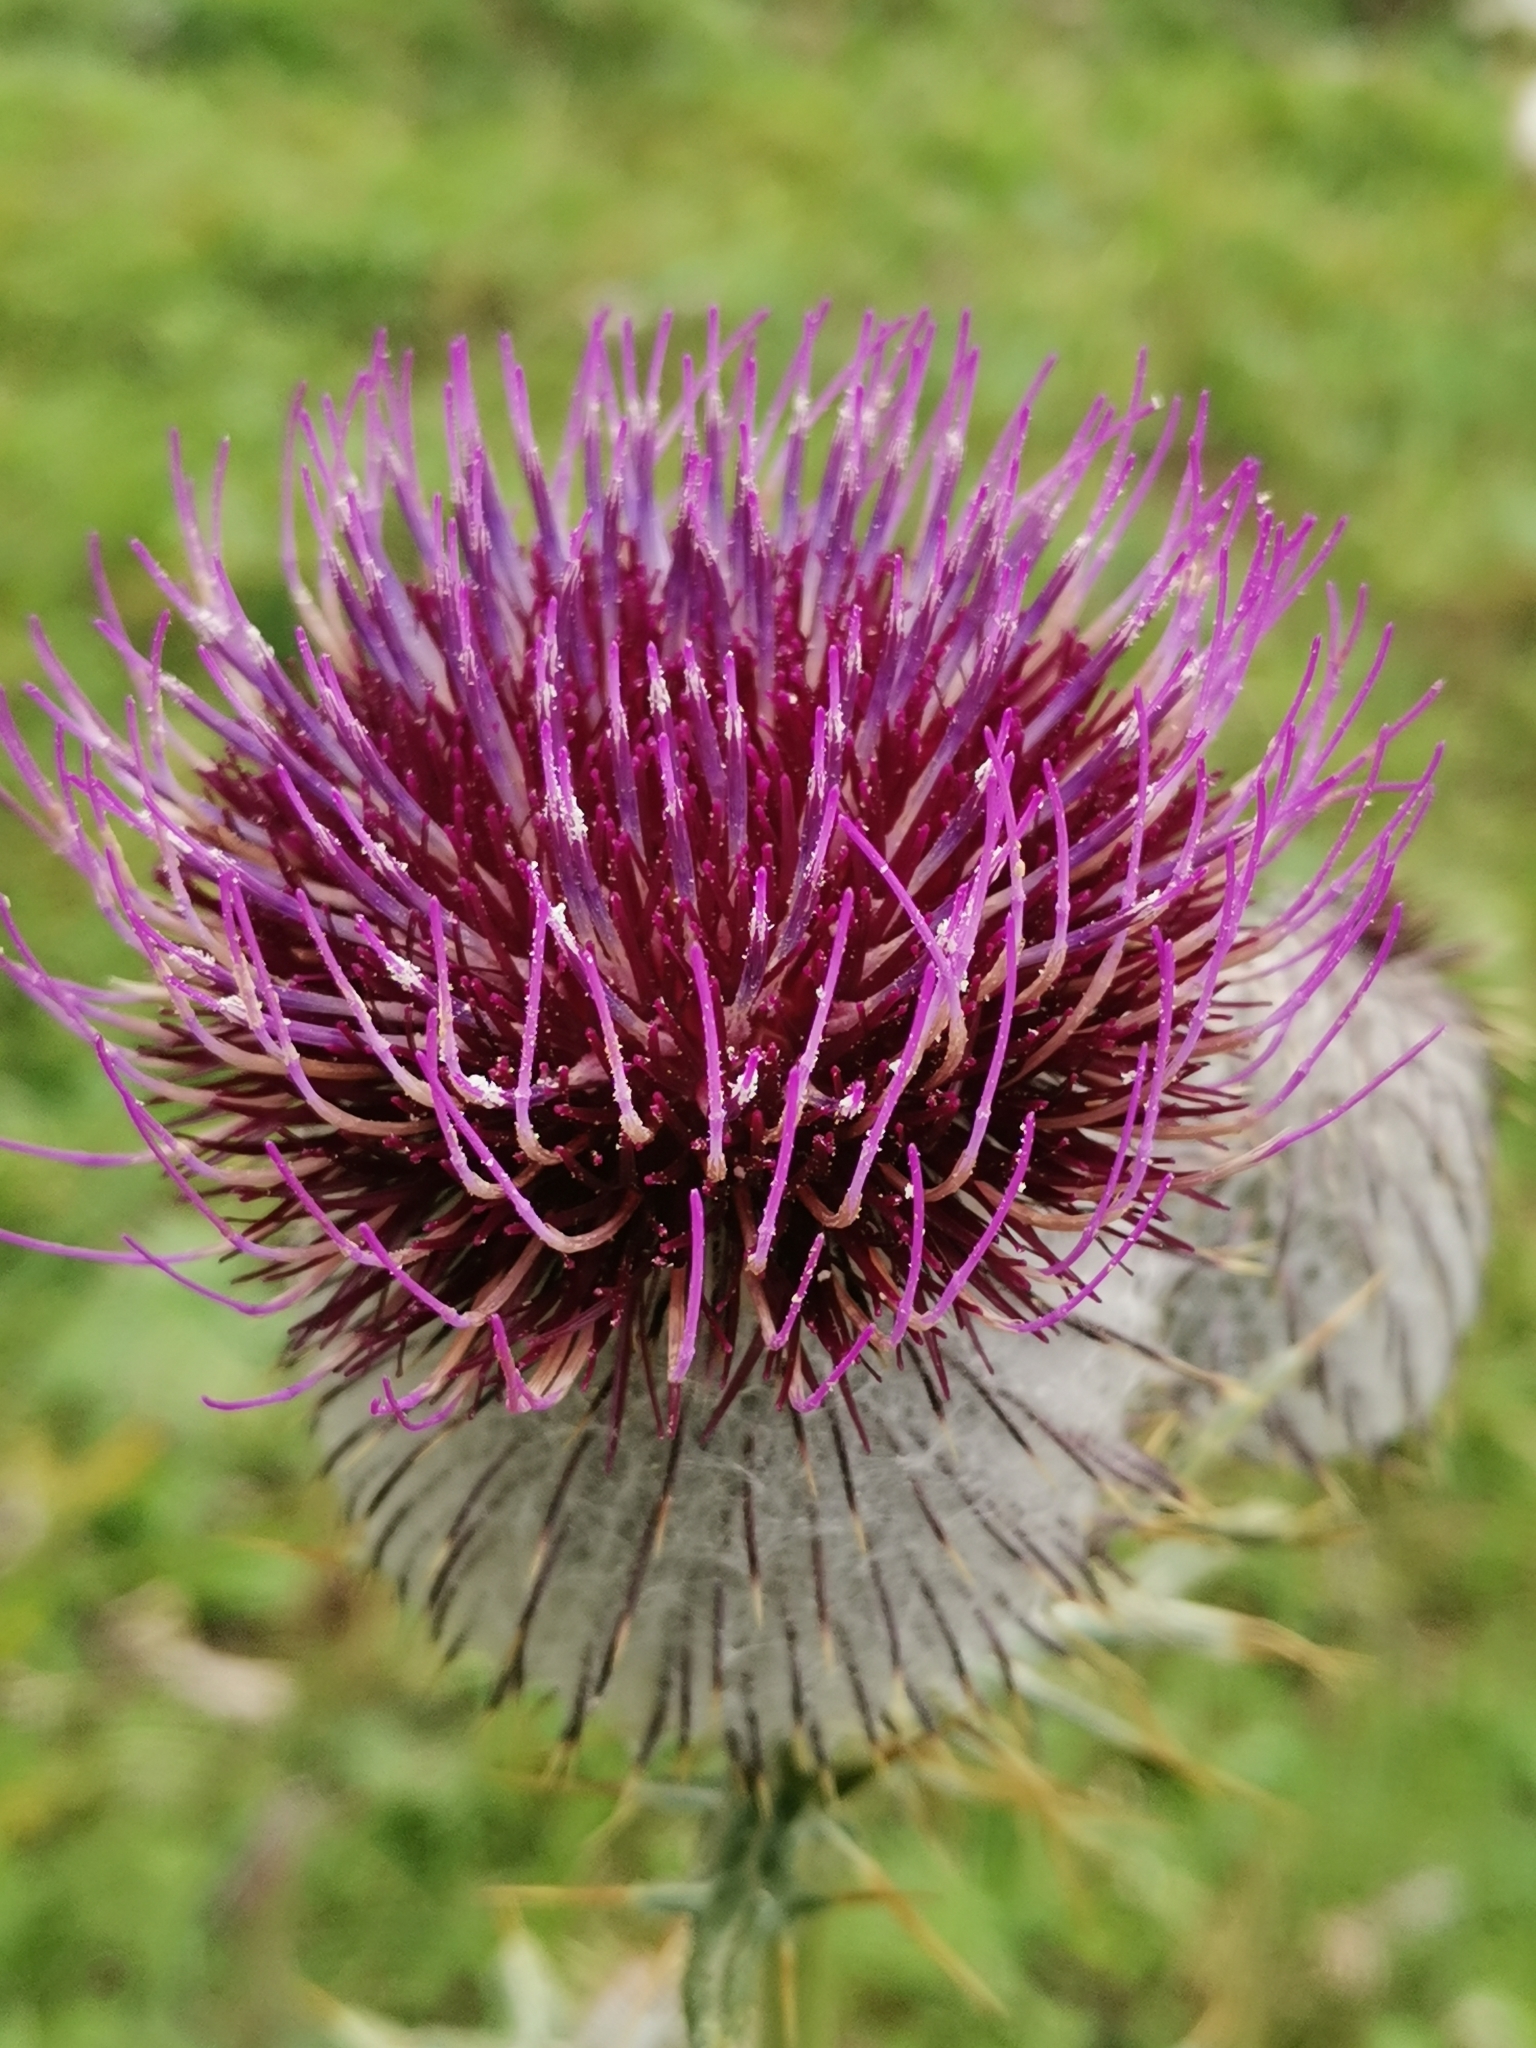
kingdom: Plantae
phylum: Tracheophyta
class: Magnoliopsida
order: Asterales
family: Asteraceae
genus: Lophiolepis
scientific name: Lophiolepis eriophora
